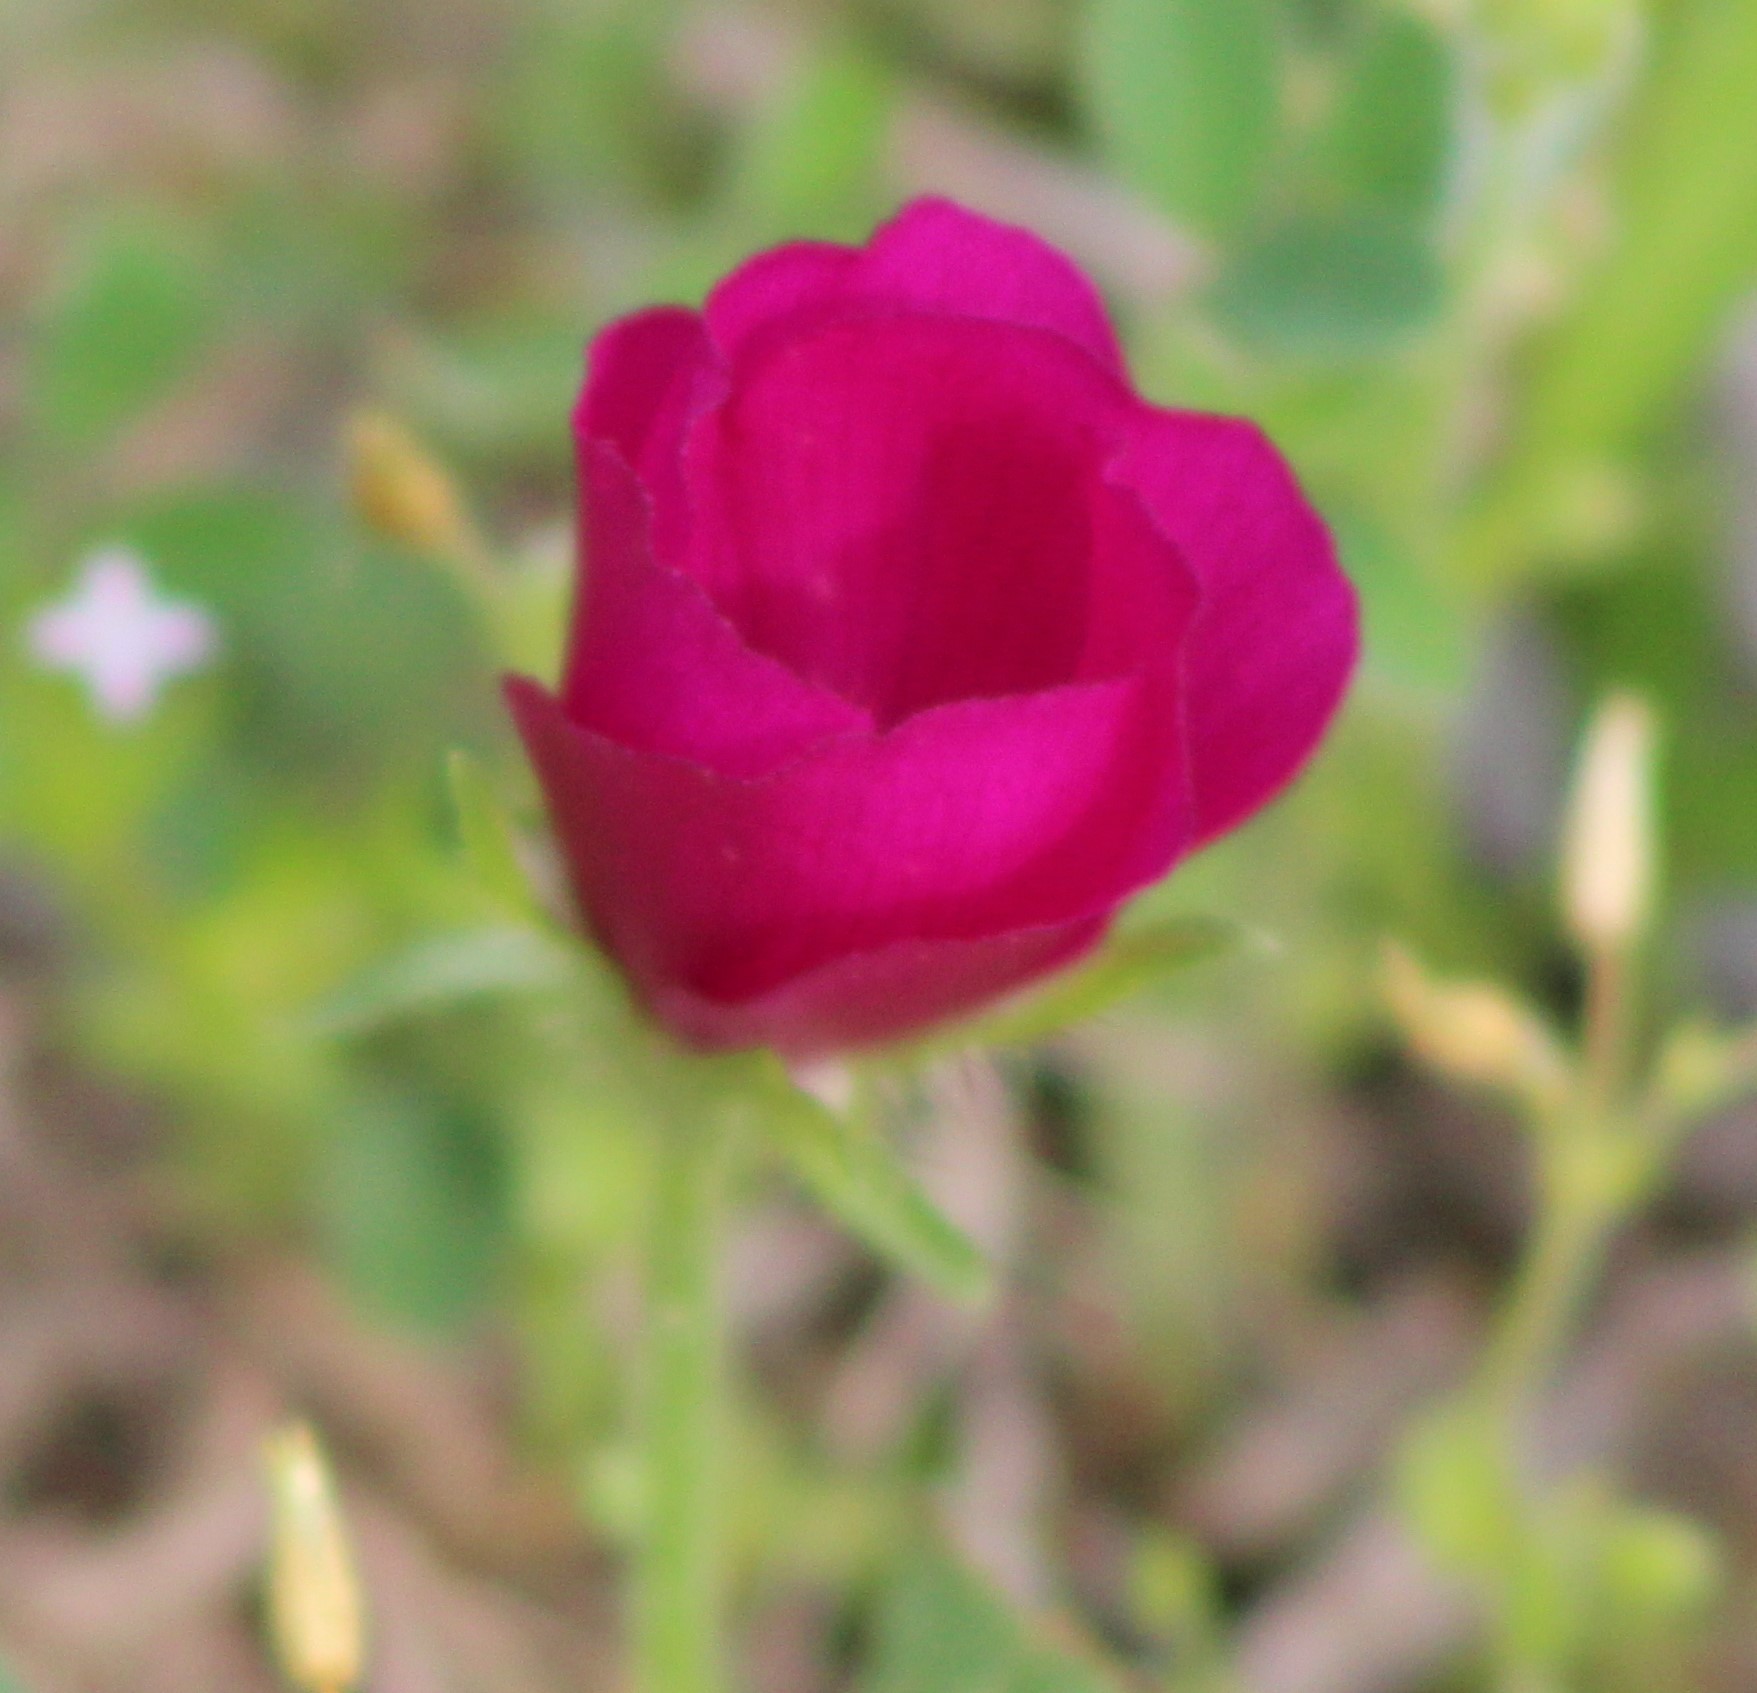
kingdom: Plantae
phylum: Tracheophyta
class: Magnoliopsida
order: Malvales
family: Malvaceae
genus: Callirhoe
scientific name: Callirhoe involucrata
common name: Purple poppy-mallow
